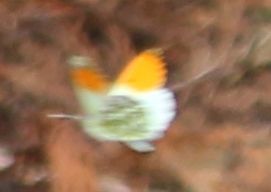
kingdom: Animalia
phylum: Arthropoda
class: Insecta
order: Lepidoptera
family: Pieridae
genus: Anthocharis
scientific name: Anthocharis cardamines
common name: Orange-tip
